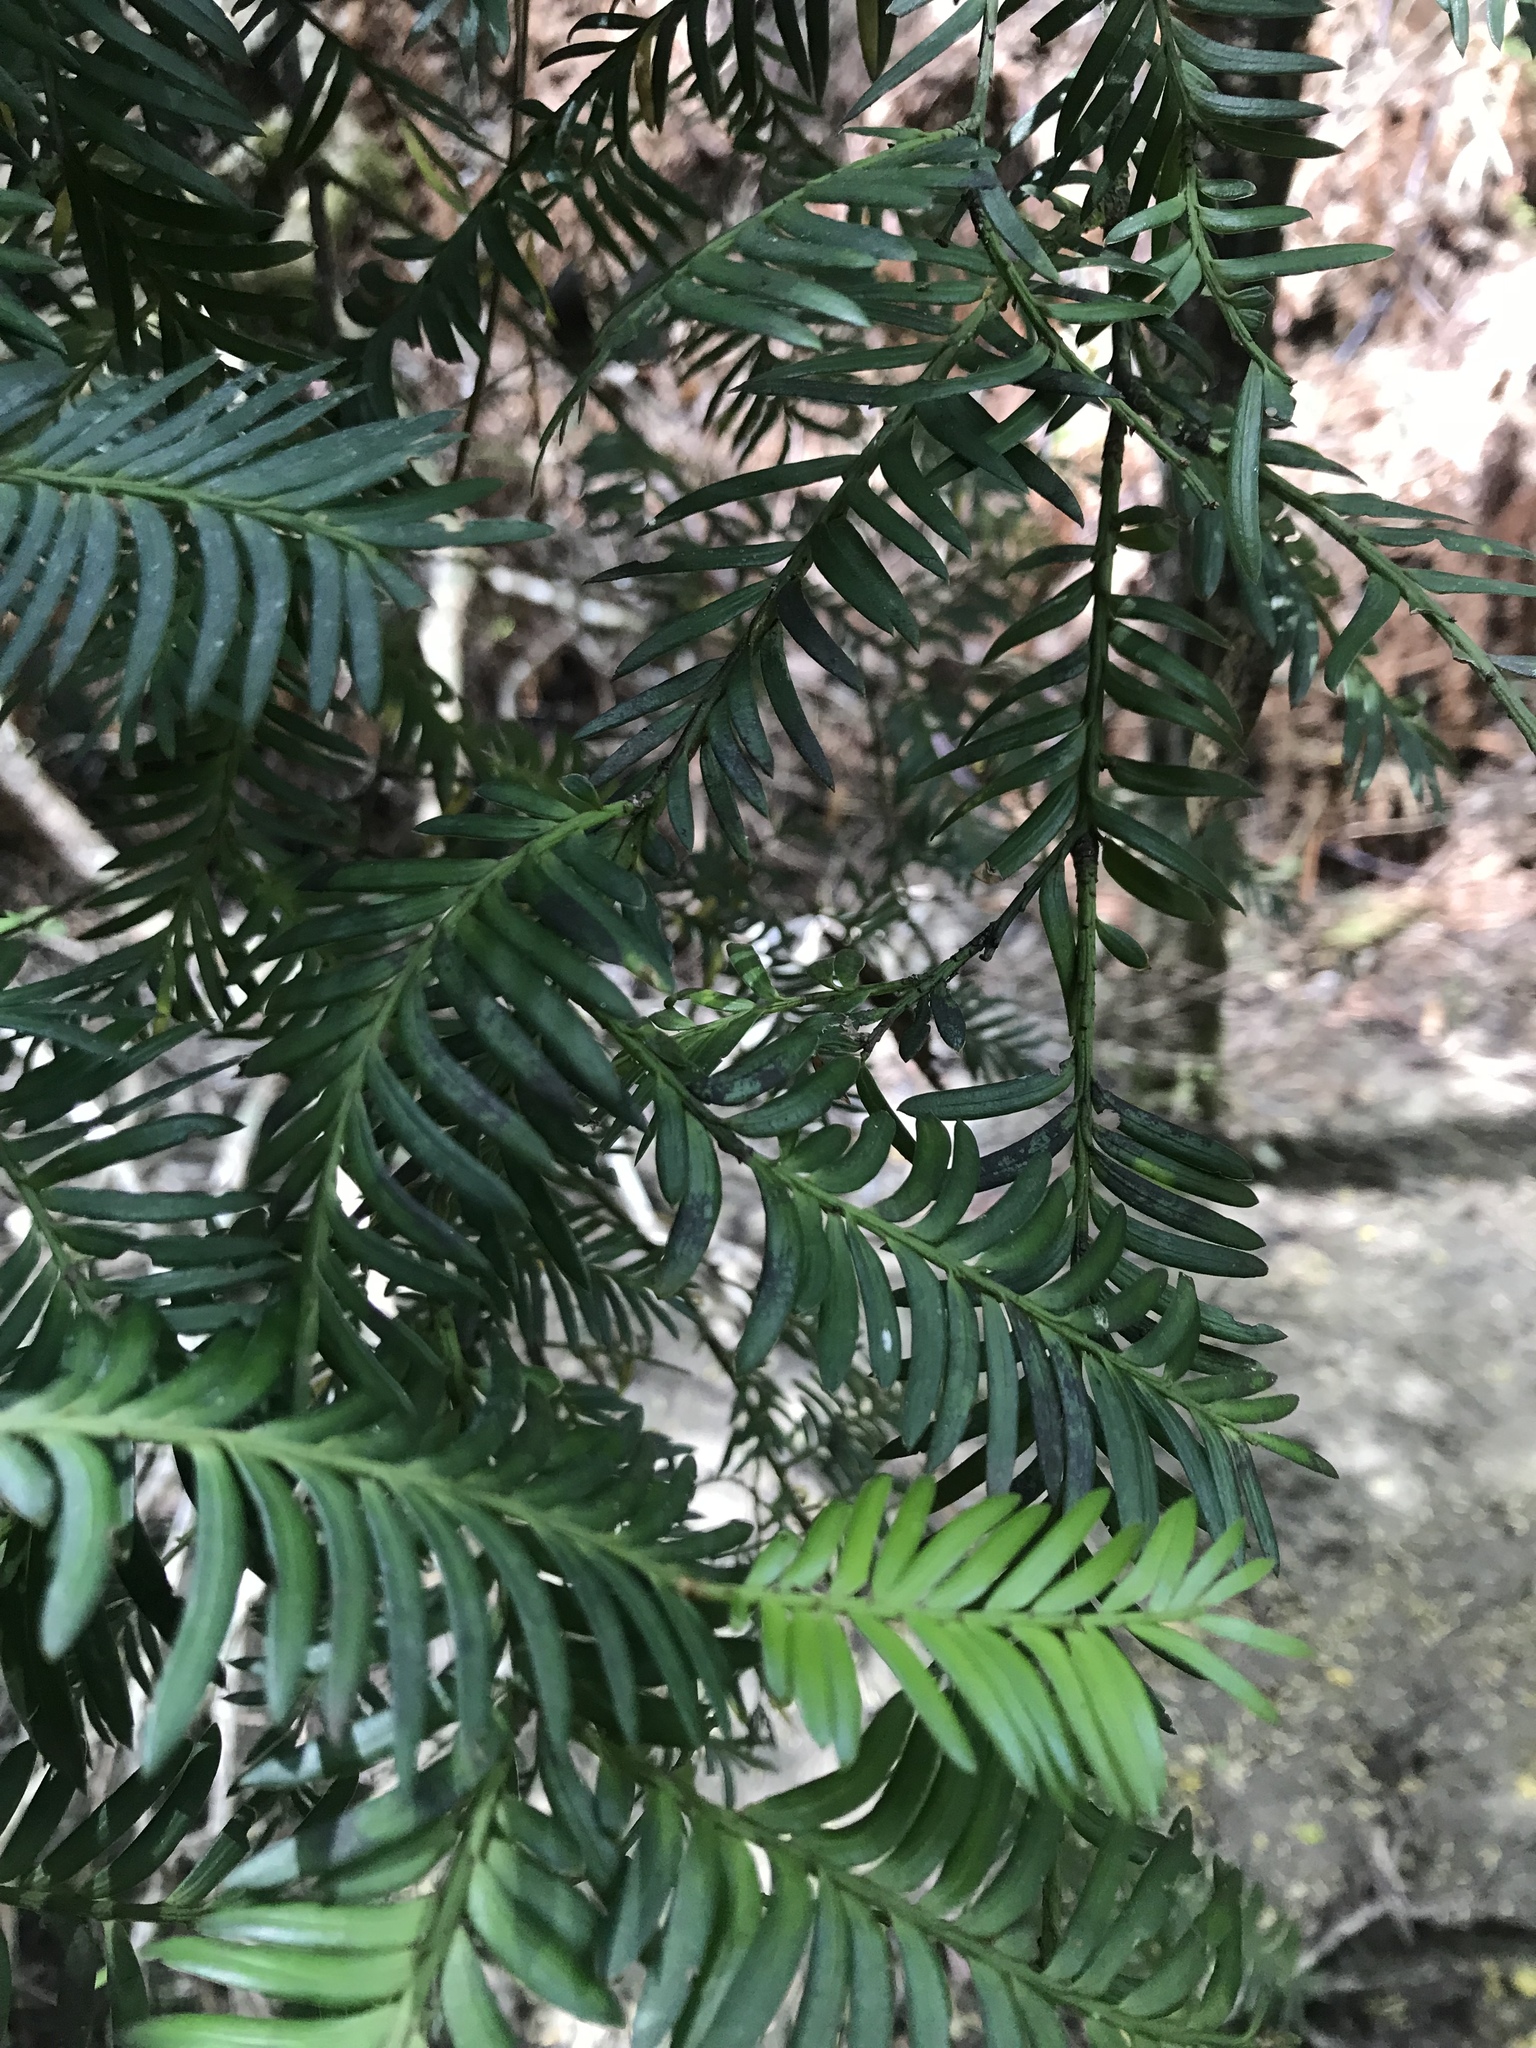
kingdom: Plantae
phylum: Tracheophyta
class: Pinopsida
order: Pinales
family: Podocarpaceae
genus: Prumnopitys
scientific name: Prumnopitys ferruginea
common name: Brown pine
